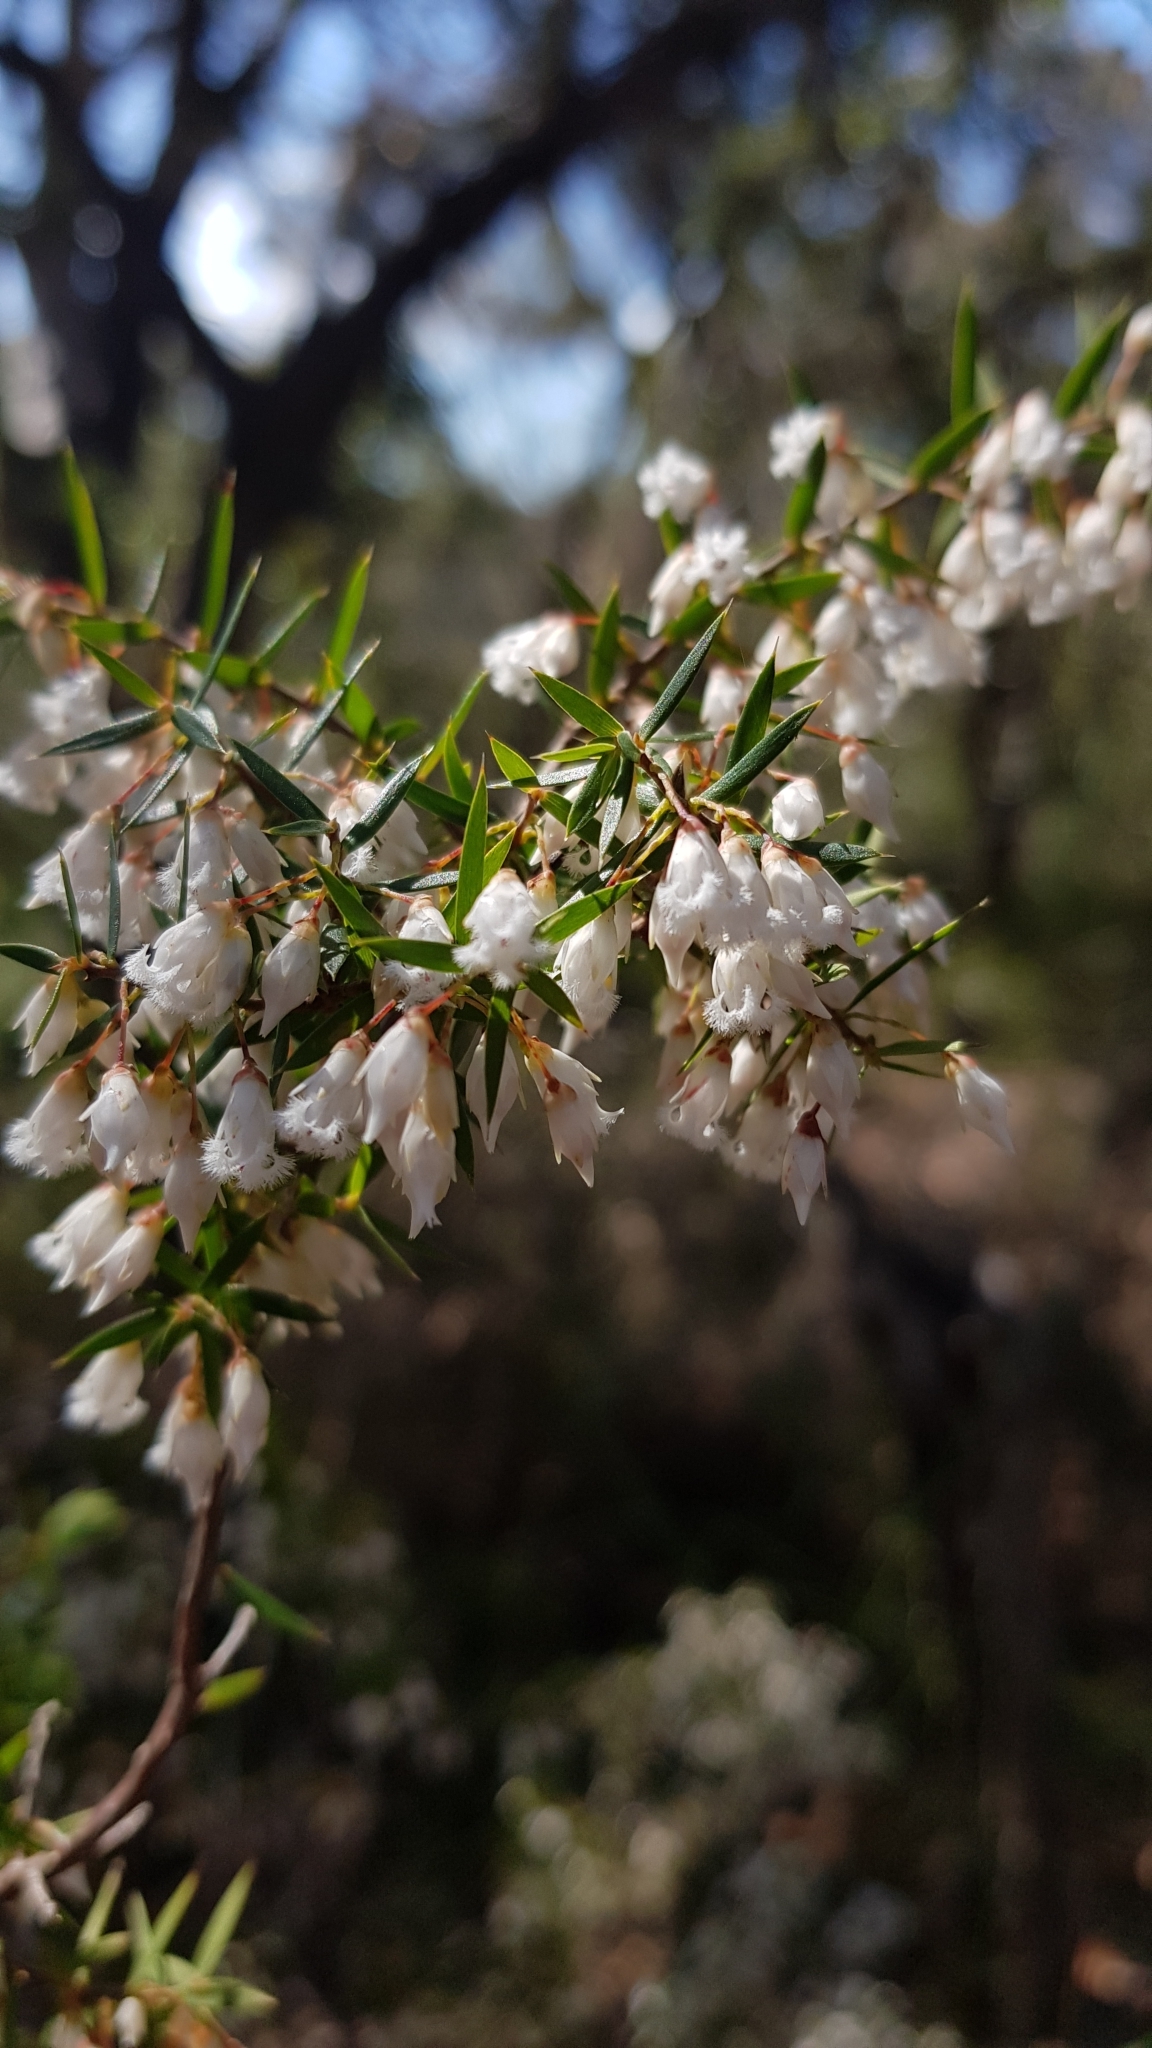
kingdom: Plantae
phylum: Tracheophyta
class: Magnoliopsida
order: Ericales
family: Ericaceae
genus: Styphelia
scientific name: Styphelia setigera
